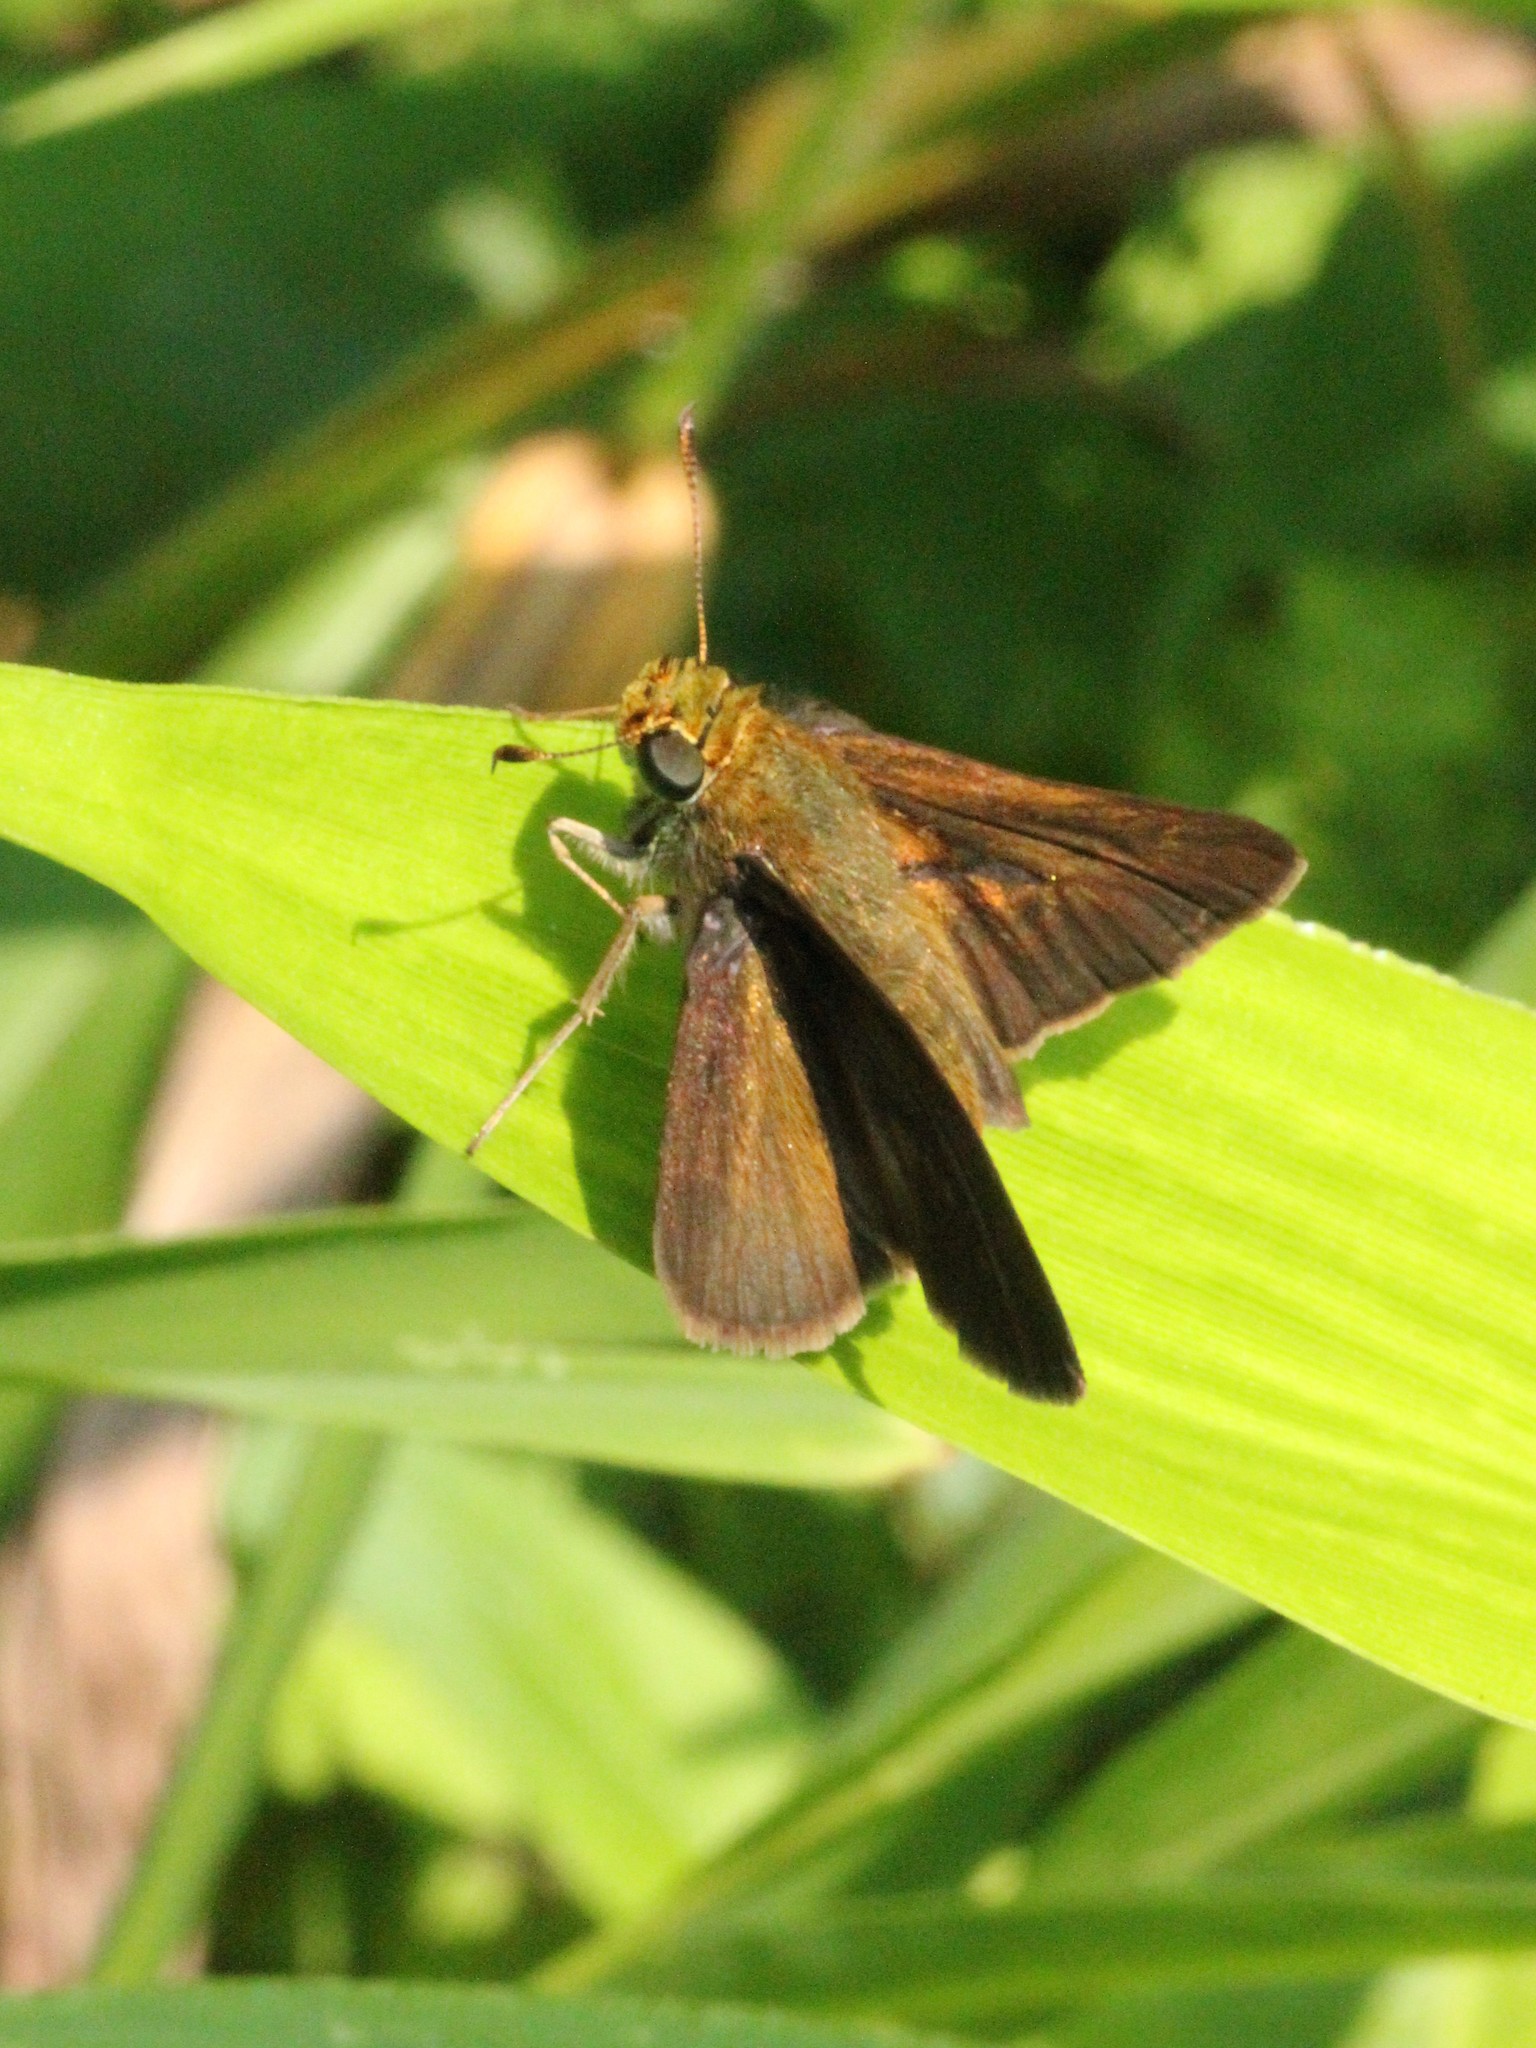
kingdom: Animalia
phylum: Arthropoda
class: Insecta
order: Lepidoptera
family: Hesperiidae
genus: Euphyes
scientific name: Euphyes vestris
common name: Dun skipper
